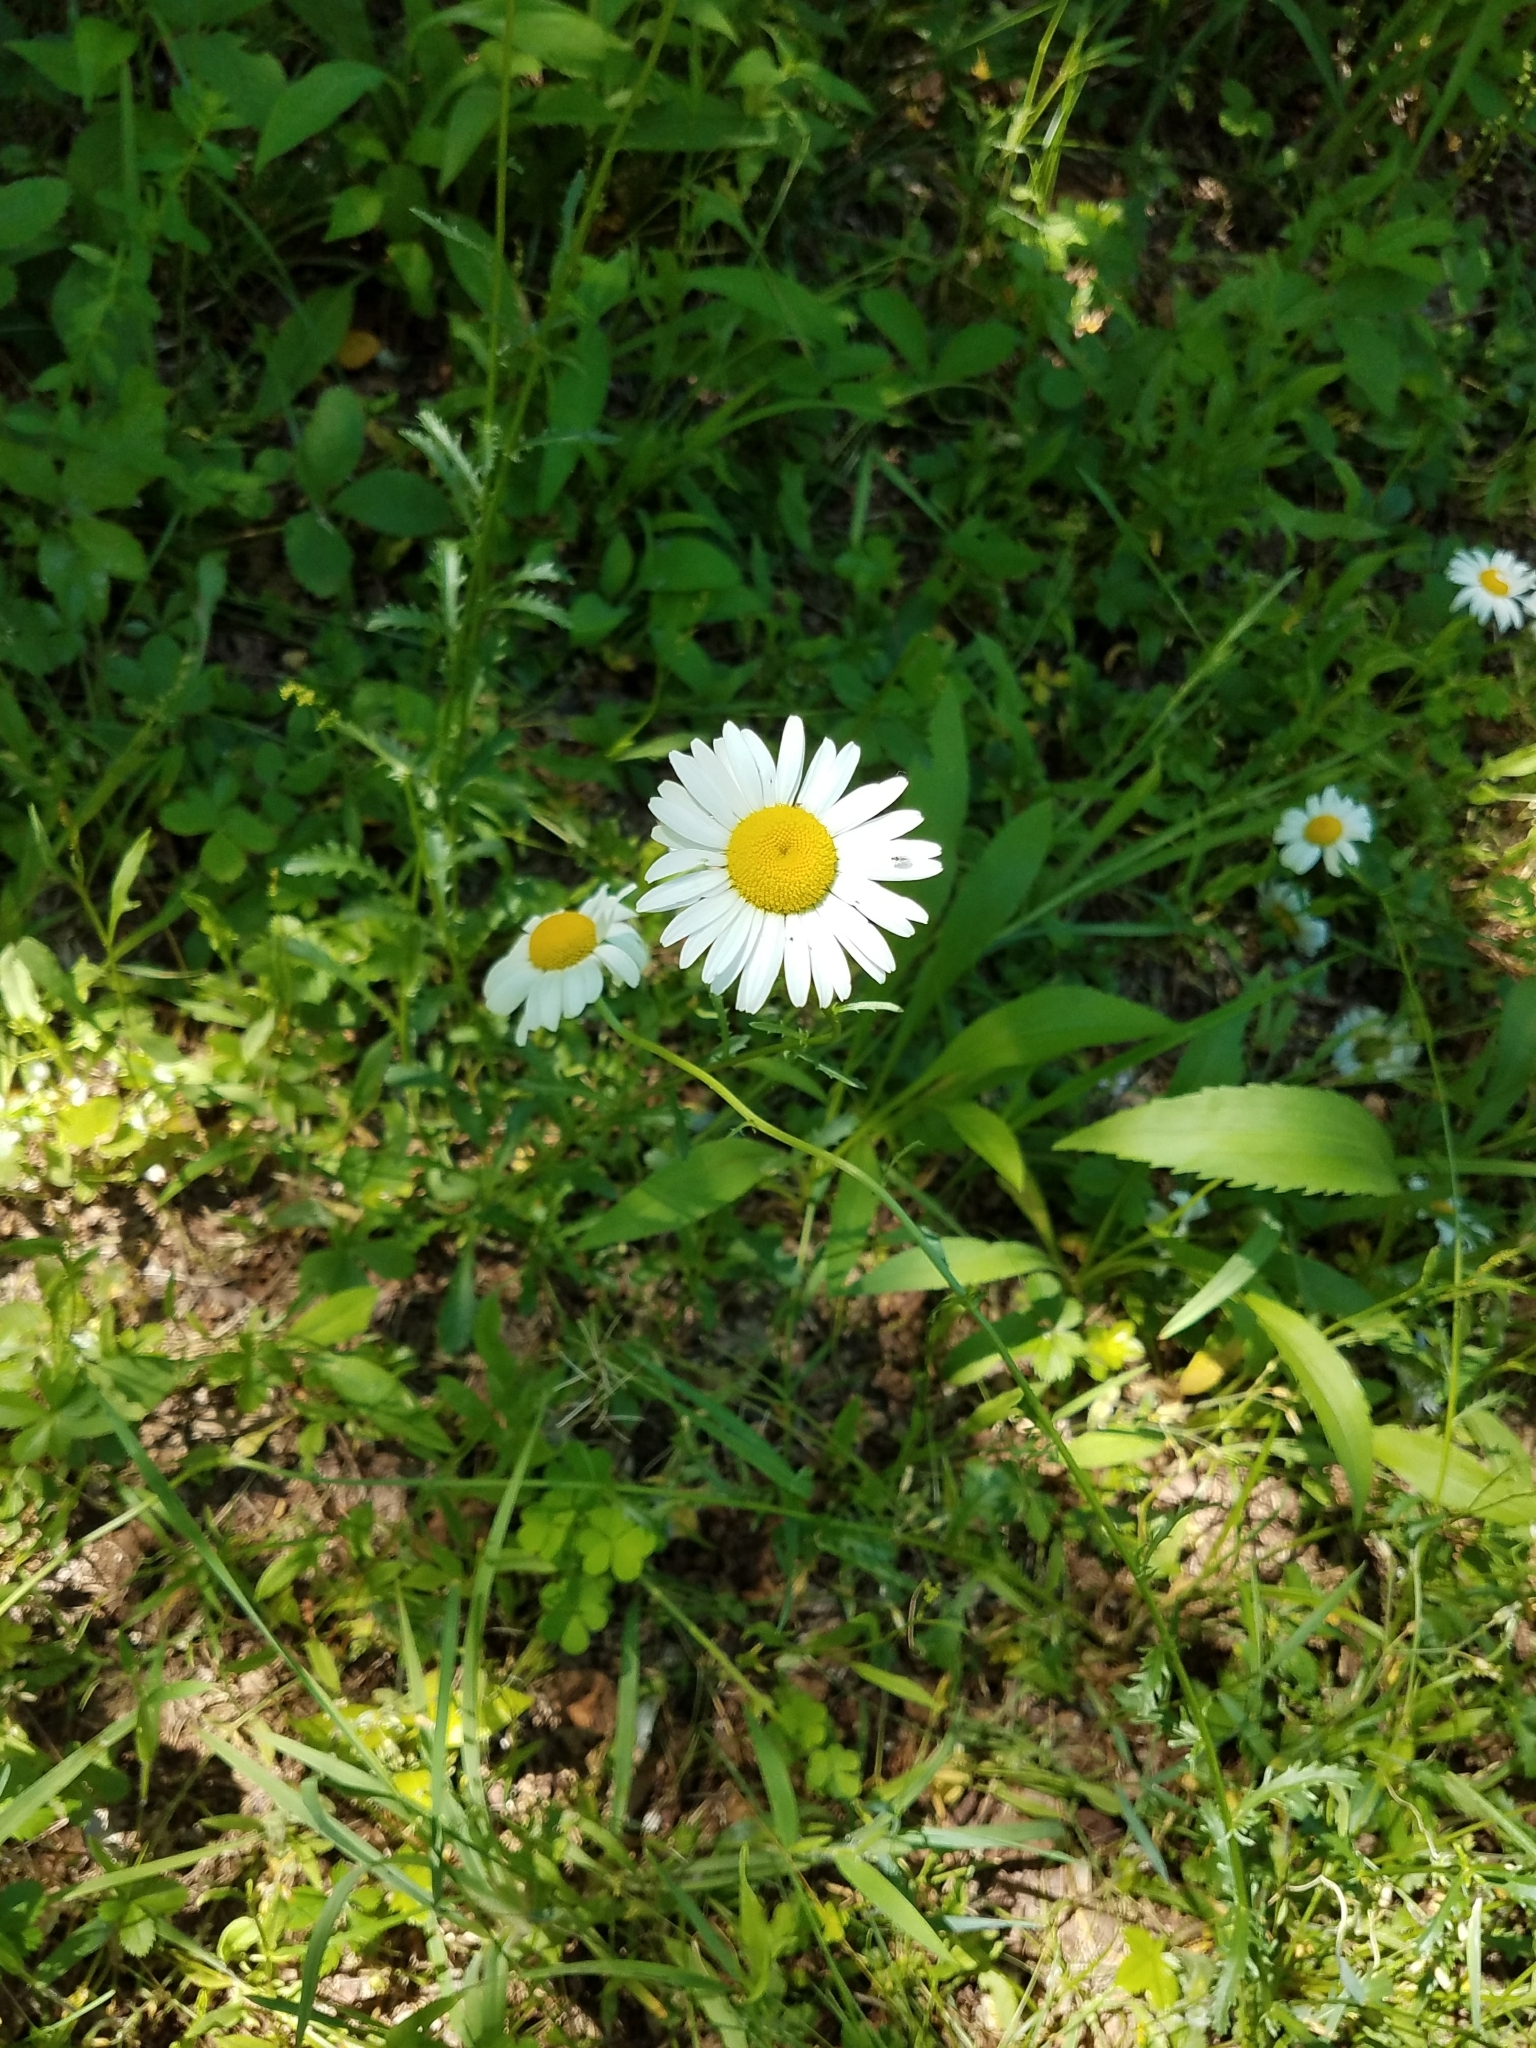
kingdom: Plantae
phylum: Tracheophyta
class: Magnoliopsida
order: Asterales
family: Asteraceae
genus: Leucanthemum
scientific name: Leucanthemum vulgare
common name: Oxeye daisy
